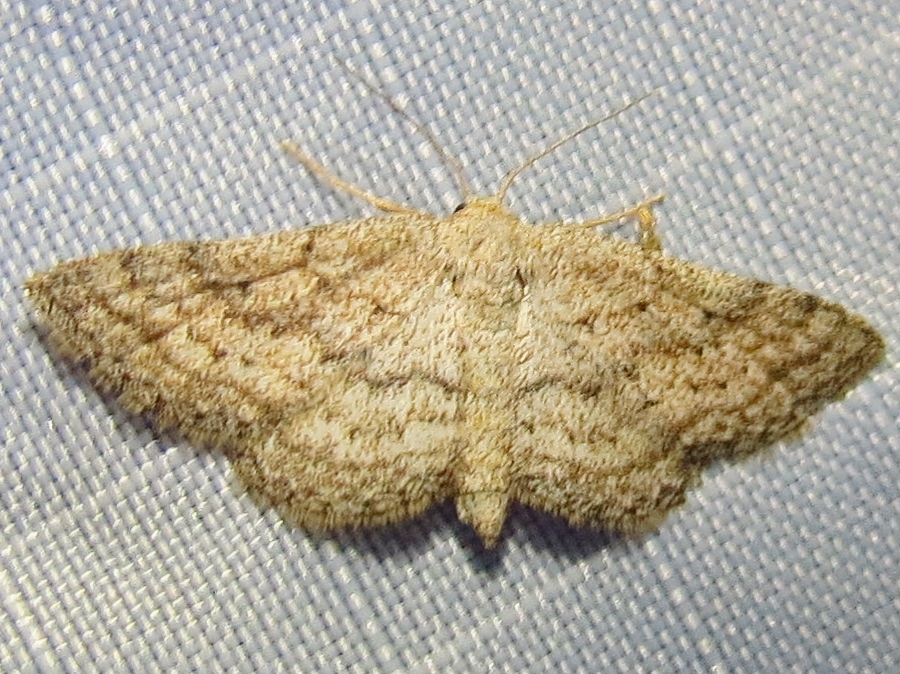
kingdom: Animalia
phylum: Arthropoda
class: Insecta
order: Lepidoptera
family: Geometridae
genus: Lobocleta
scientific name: Lobocleta ossularia
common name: Drab brown wave
